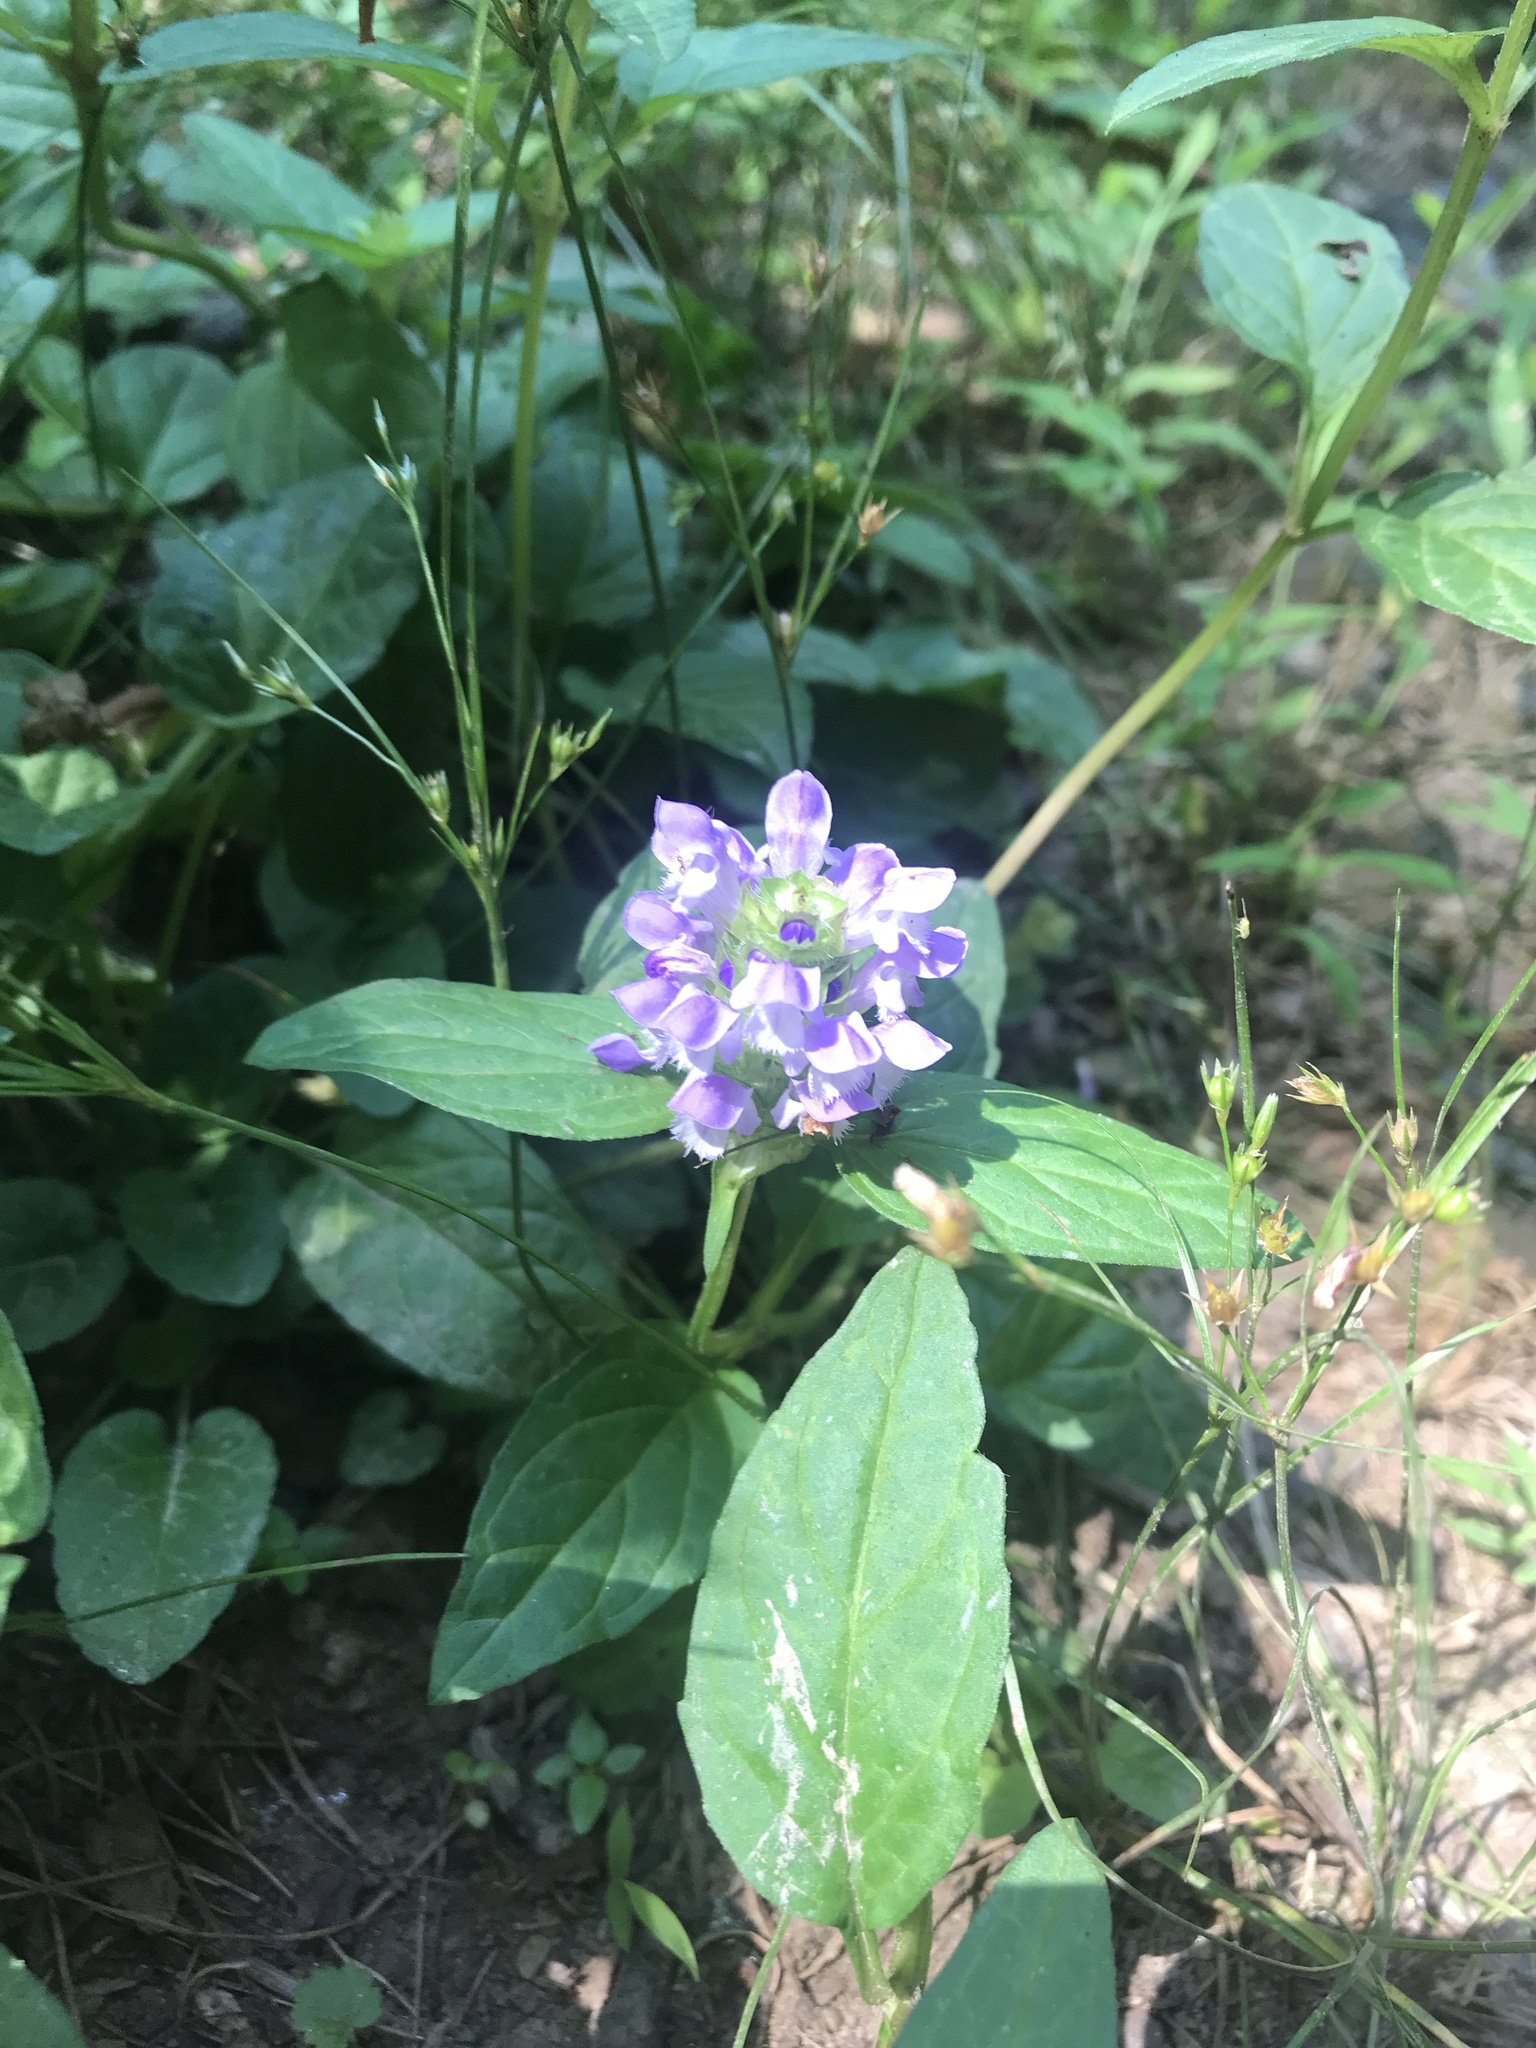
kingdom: Plantae
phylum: Tracheophyta
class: Magnoliopsida
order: Lamiales
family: Lamiaceae
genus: Prunella
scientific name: Prunella vulgaris
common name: Heal-all
